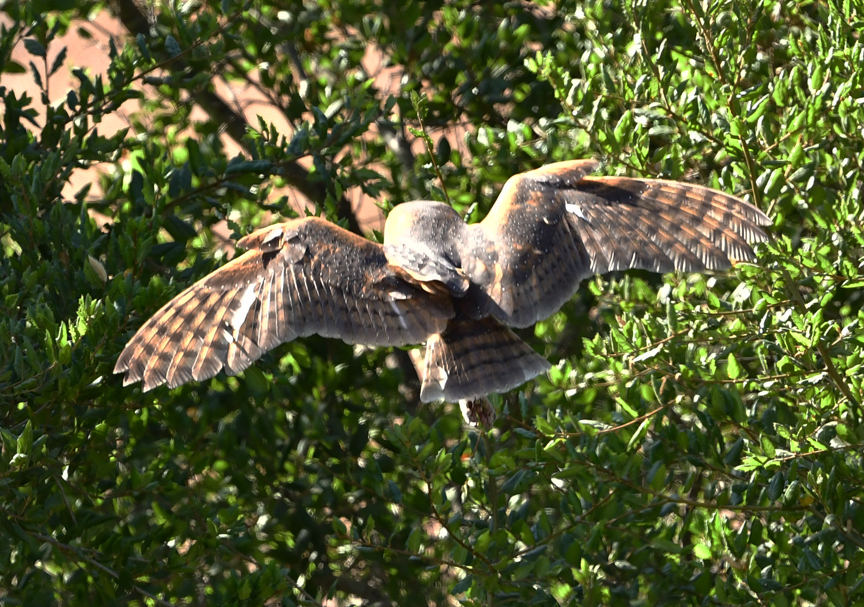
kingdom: Animalia
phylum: Chordata
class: Aves
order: Strigiformes
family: Tytonidae
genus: Tyto
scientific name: Tyto alba
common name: Barn owl
